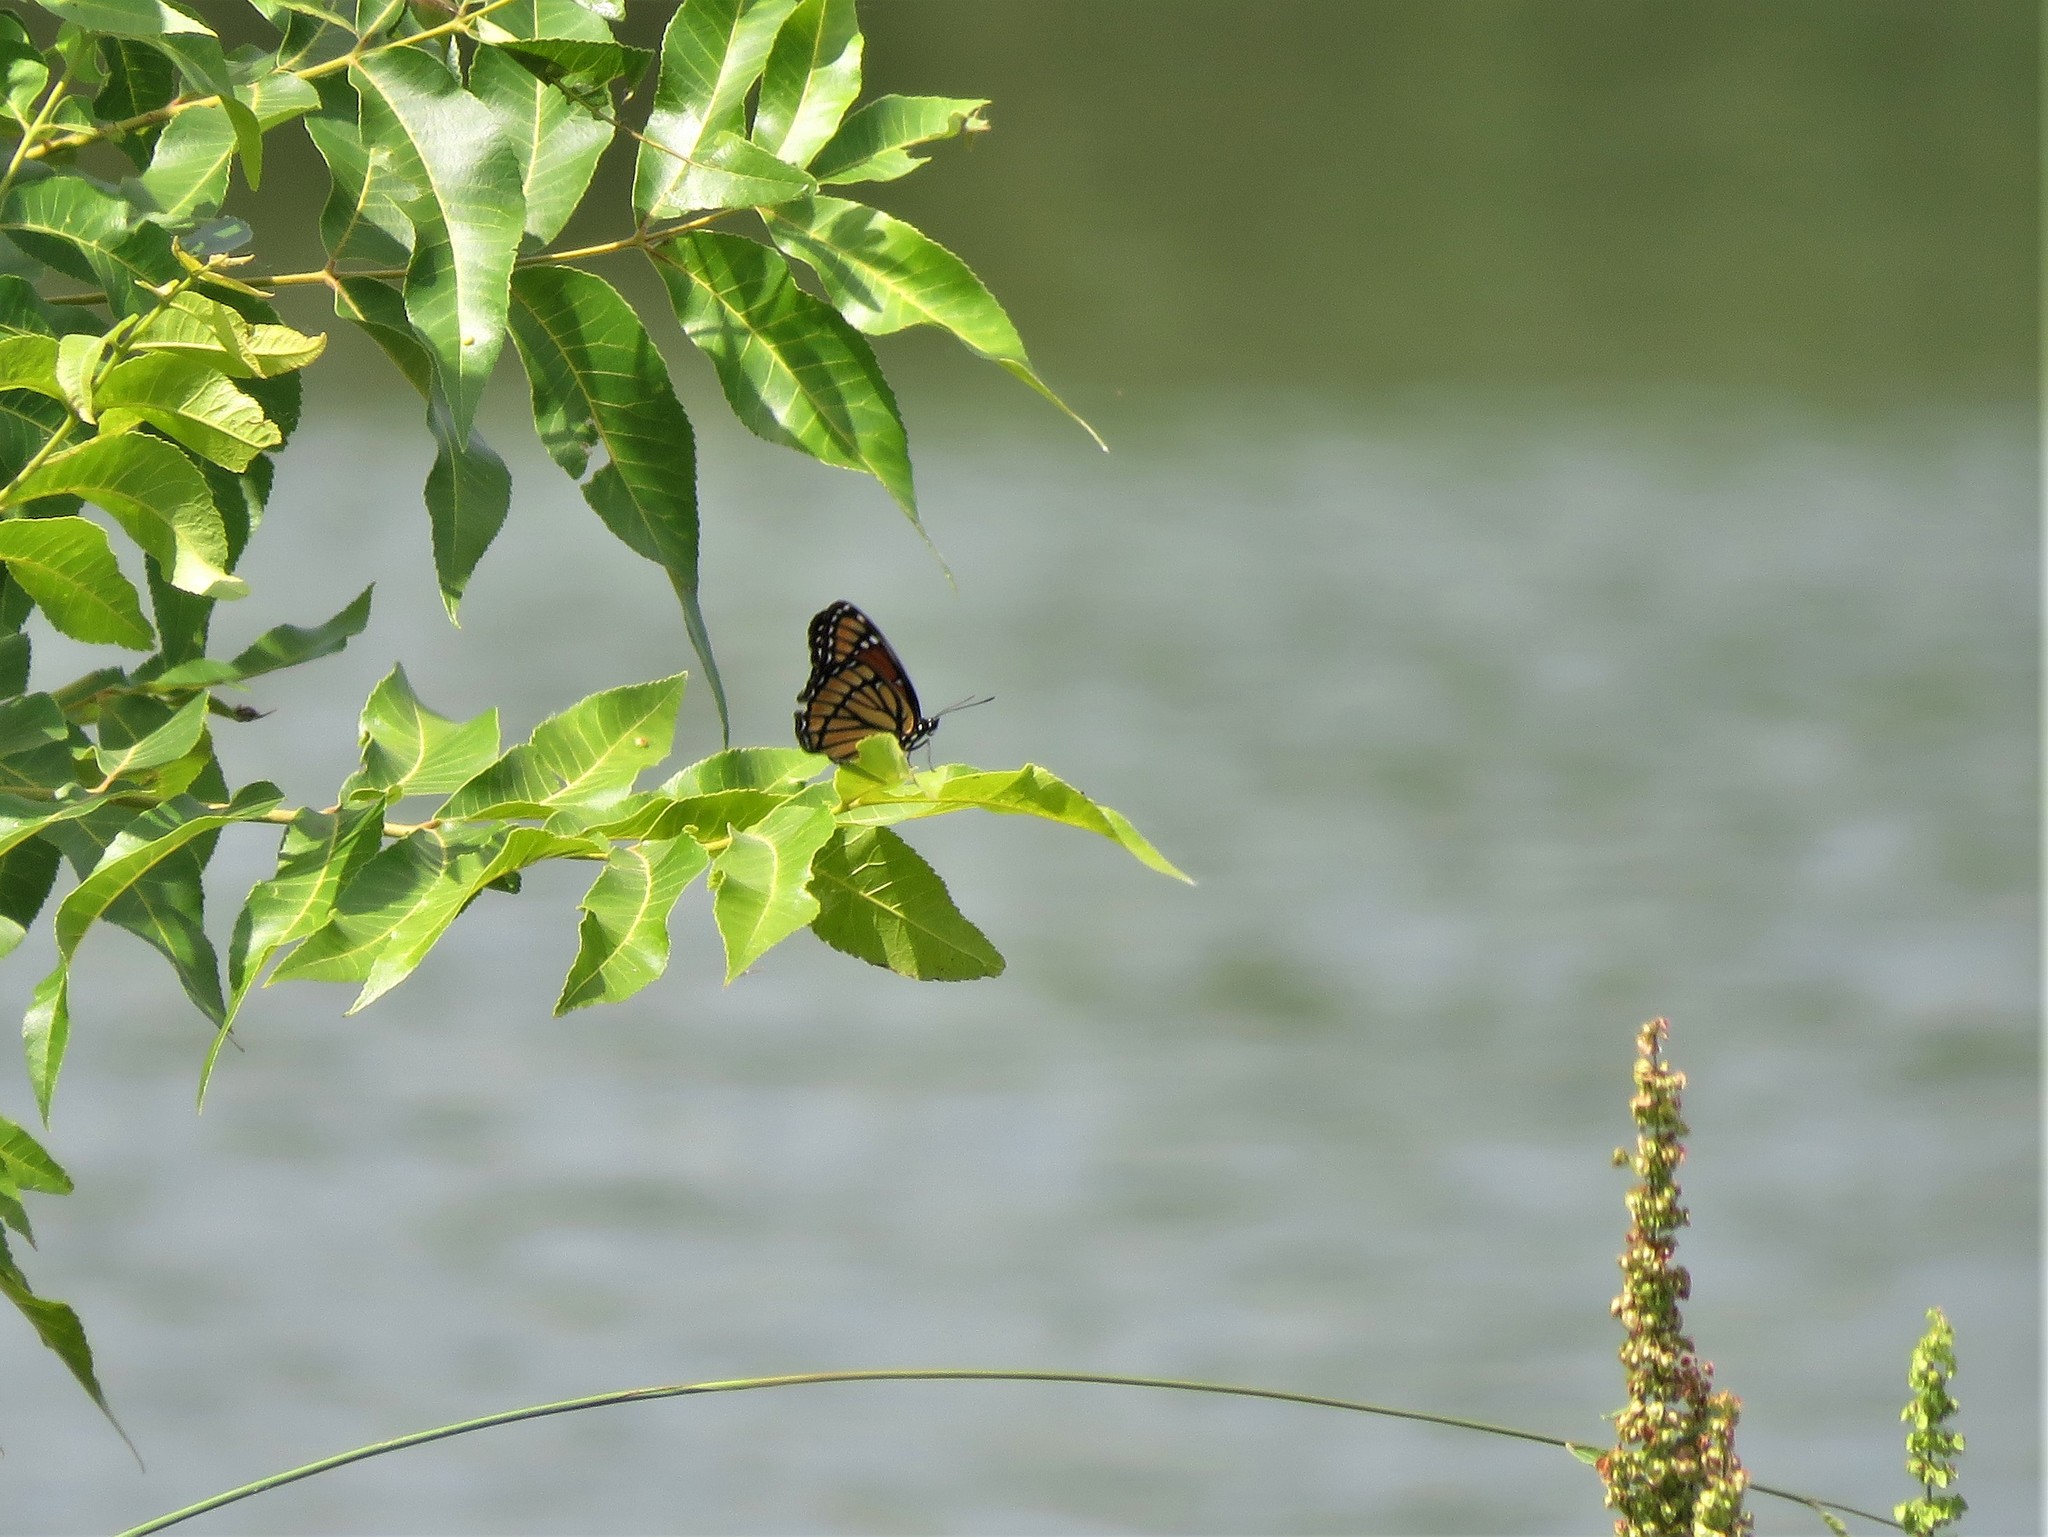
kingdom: Animalia
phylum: Arthropoda
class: Insecta
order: Lepidoptera
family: Nymphalidae
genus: Limenitis
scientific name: Limenitis archippus
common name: Viceroy
